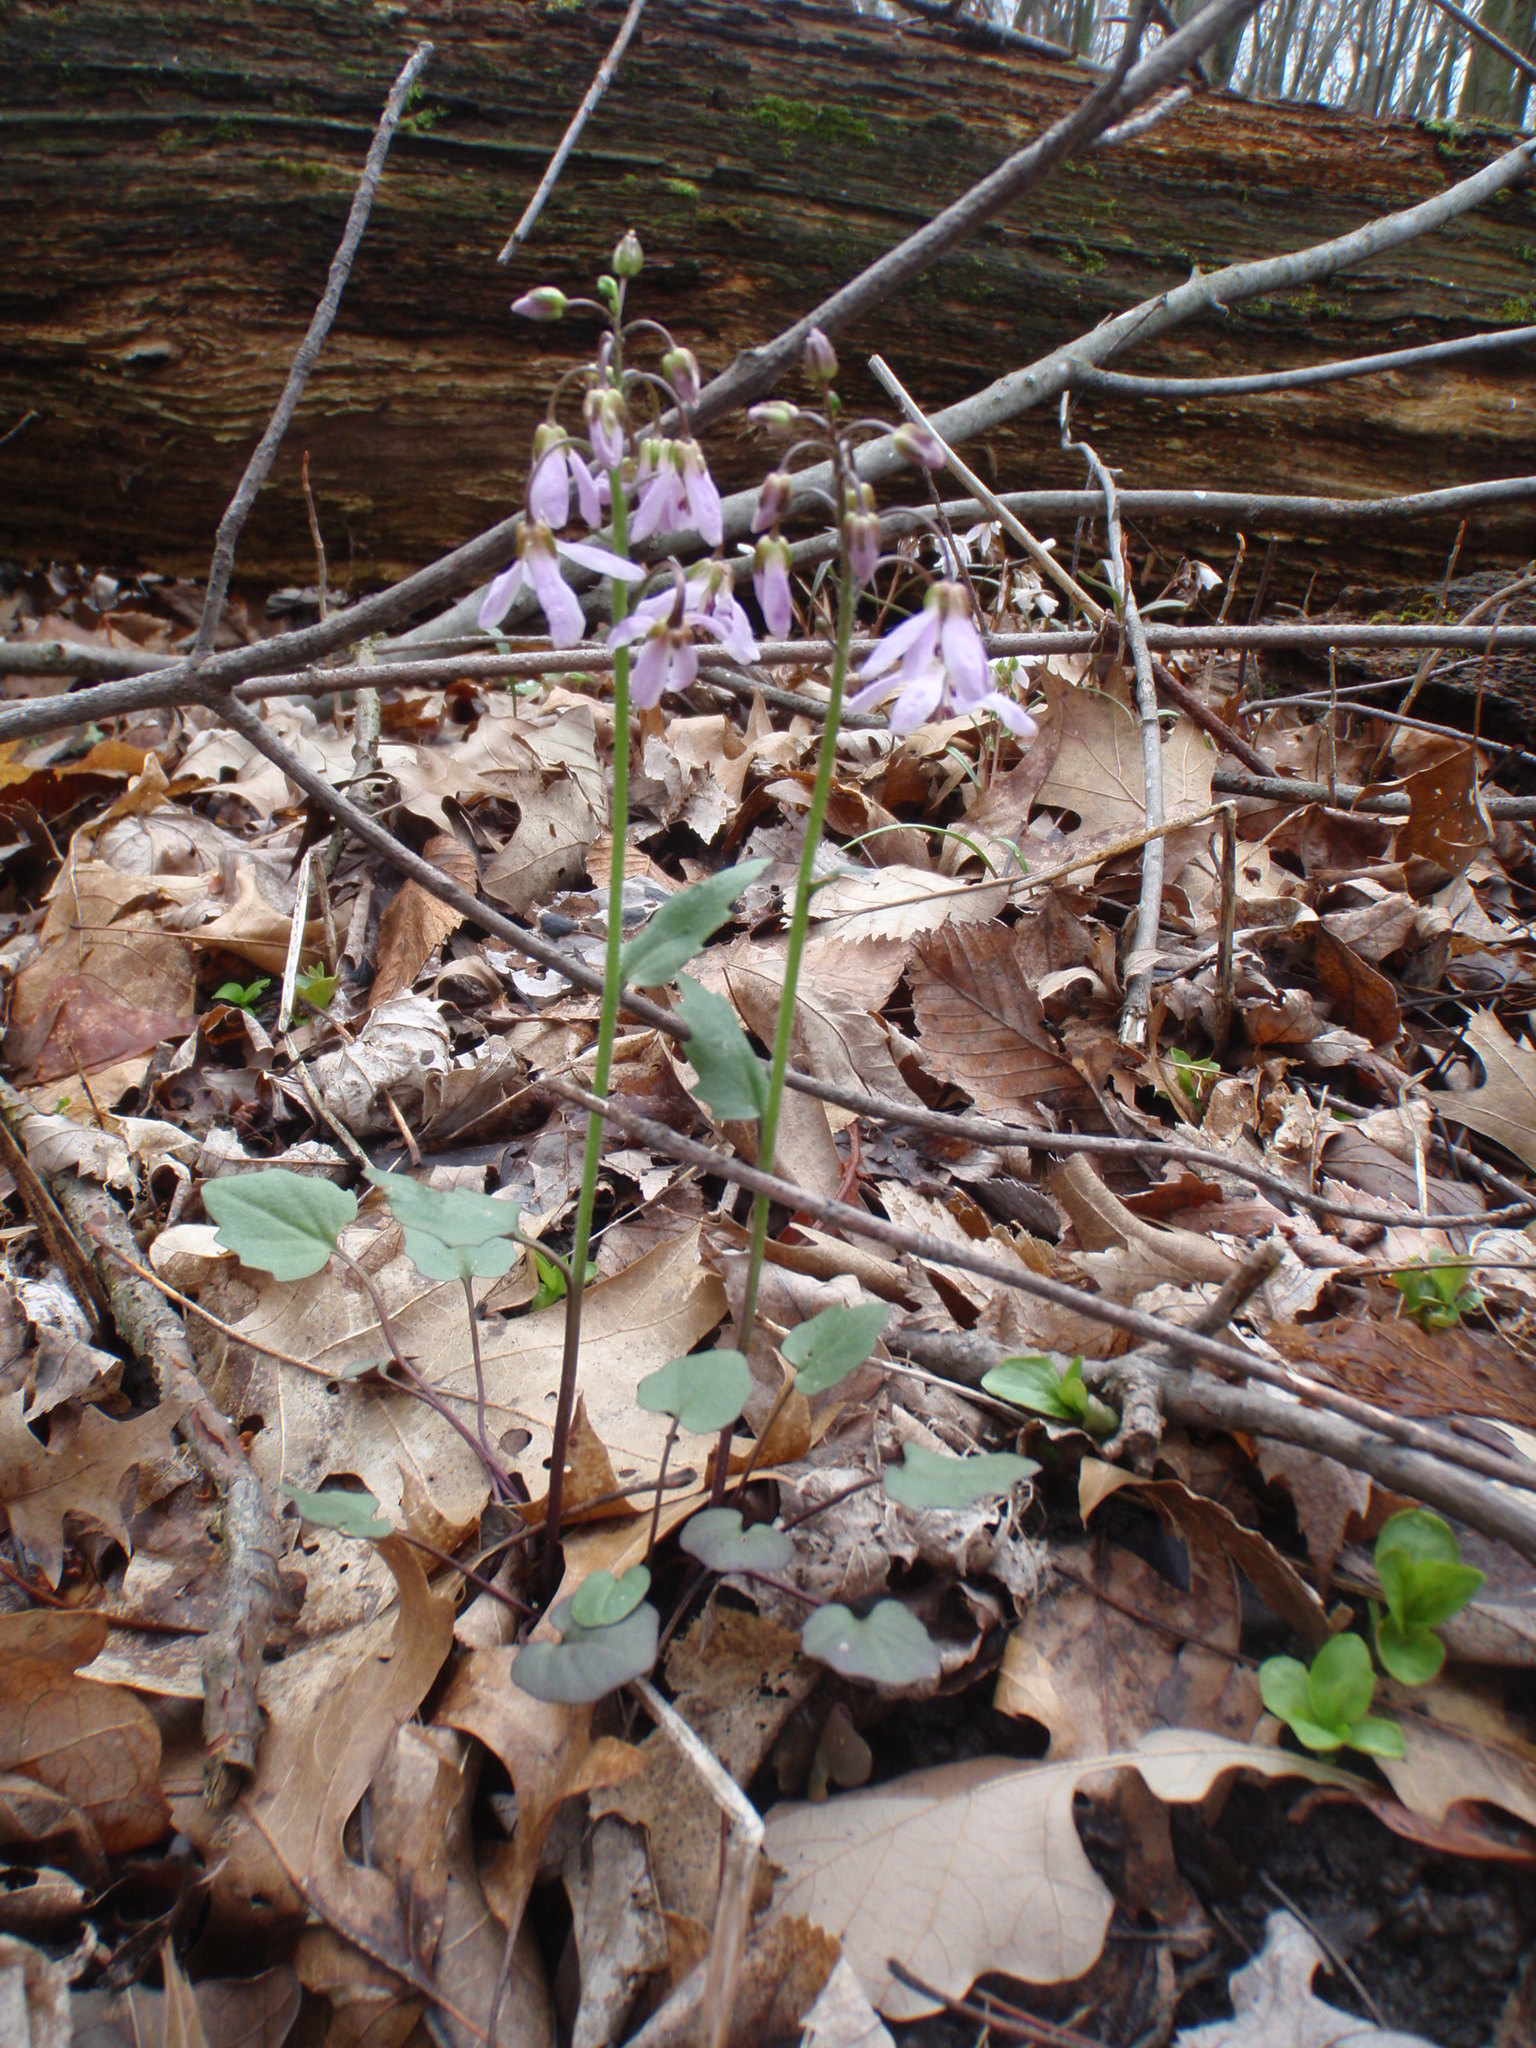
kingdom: Plantae
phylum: Tracheophyta
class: Magnoliopsida
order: Brassicales
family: Brassicaceae
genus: Cardamine
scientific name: Cardamine douglassii
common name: Purple cress
